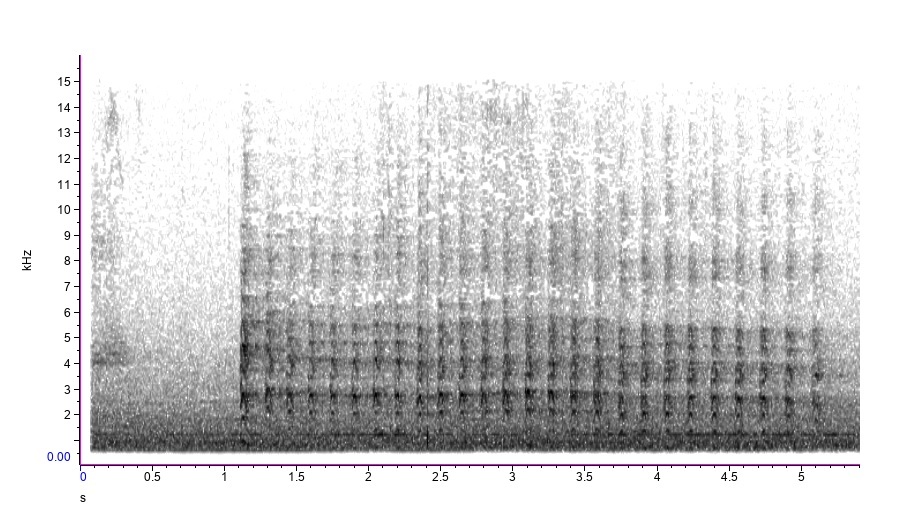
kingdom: Animalia
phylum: Chordata
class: Aves
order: Accipitriformes
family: Accipitridae
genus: Accipiter
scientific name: Accipiter cooperii
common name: Cooper's hawk
